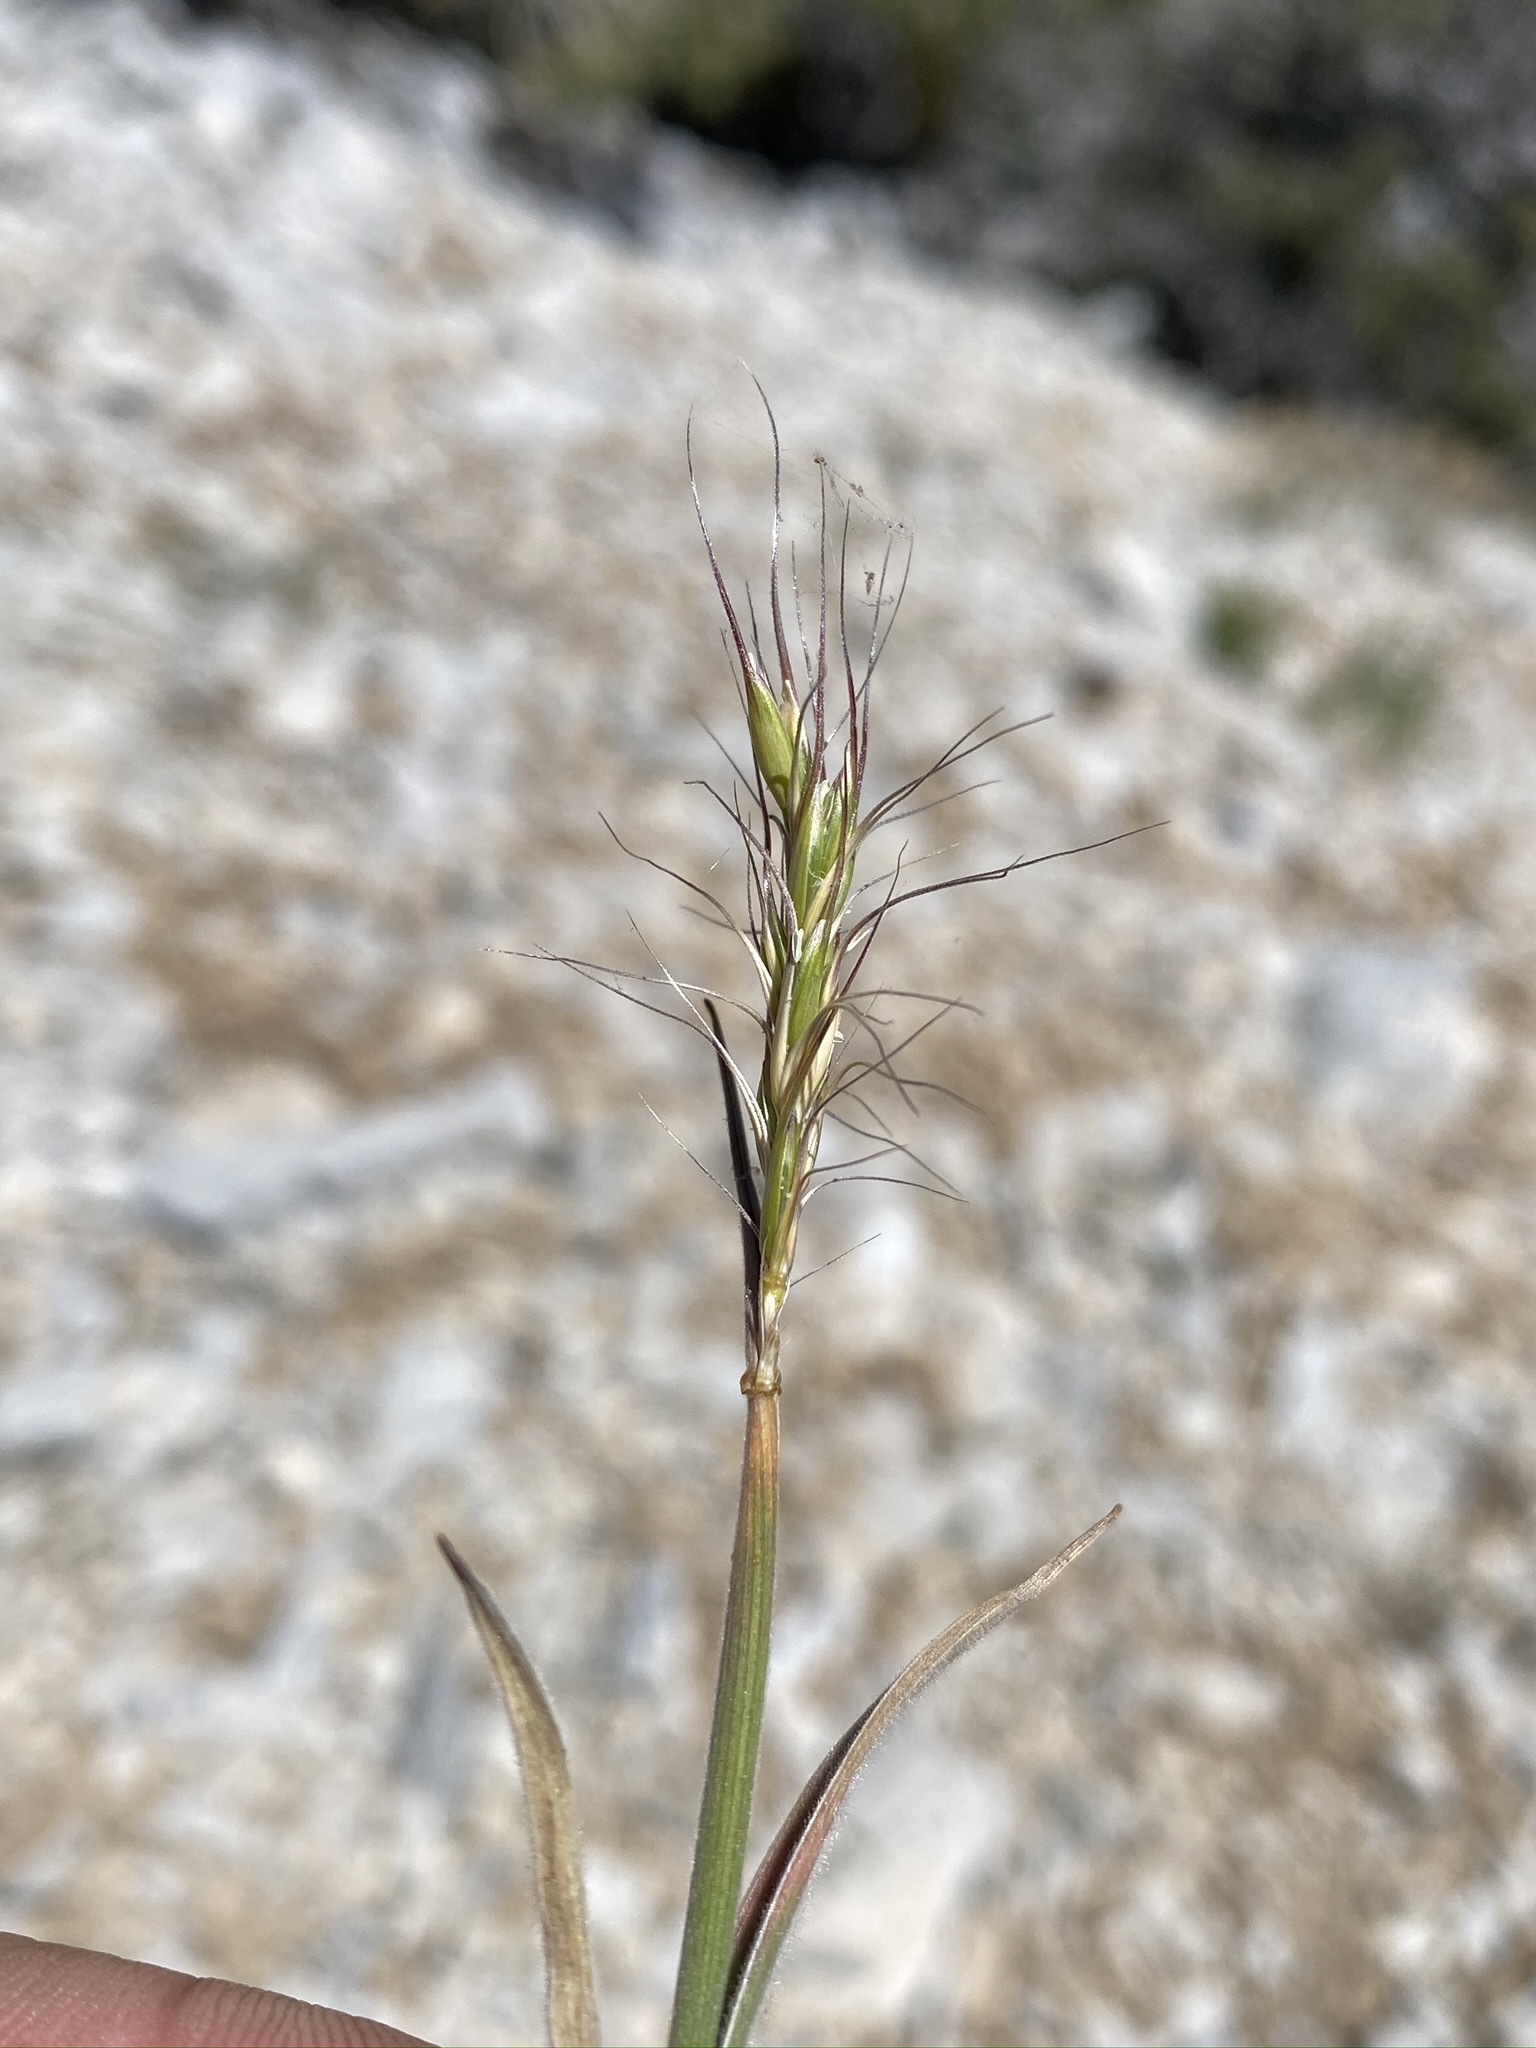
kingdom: Plantae
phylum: Tracheophyta
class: Liliopsida
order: Poales
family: Poaceae
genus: Elymus
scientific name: Elymus elymoides
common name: Bottlebrush squirreltail
